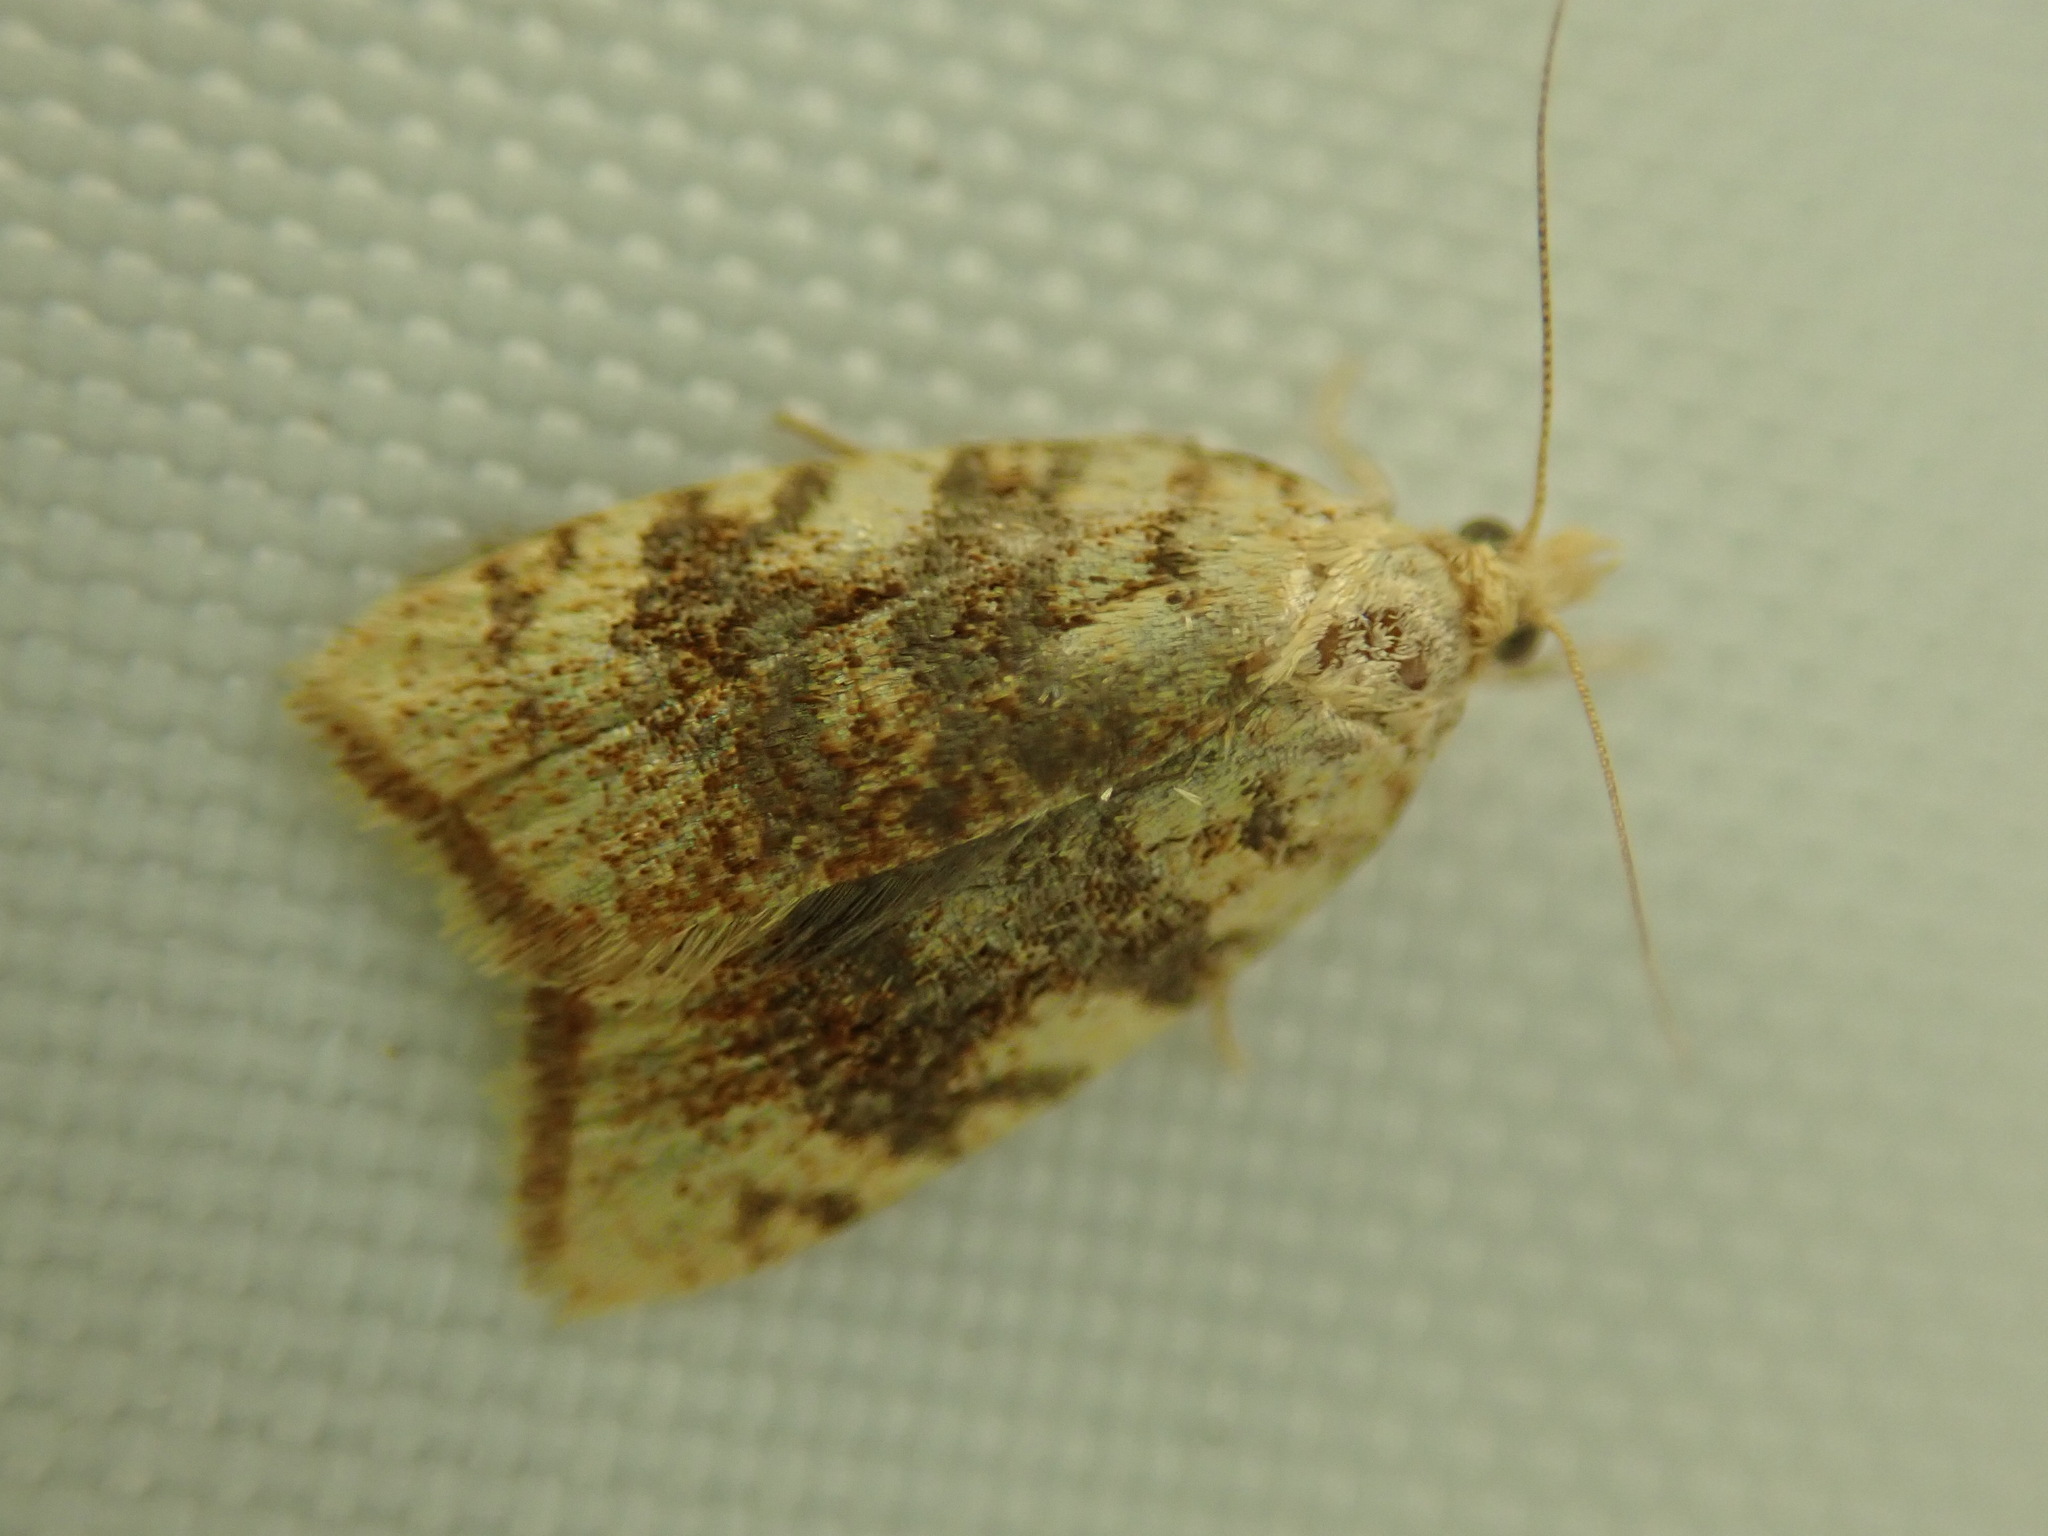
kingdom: Animalia
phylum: Arthropoda
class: Insecta
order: Lepidoptera
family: Tortricidae
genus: Aleimma
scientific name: Aleimma loeflingiana
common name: Yellow oak button
